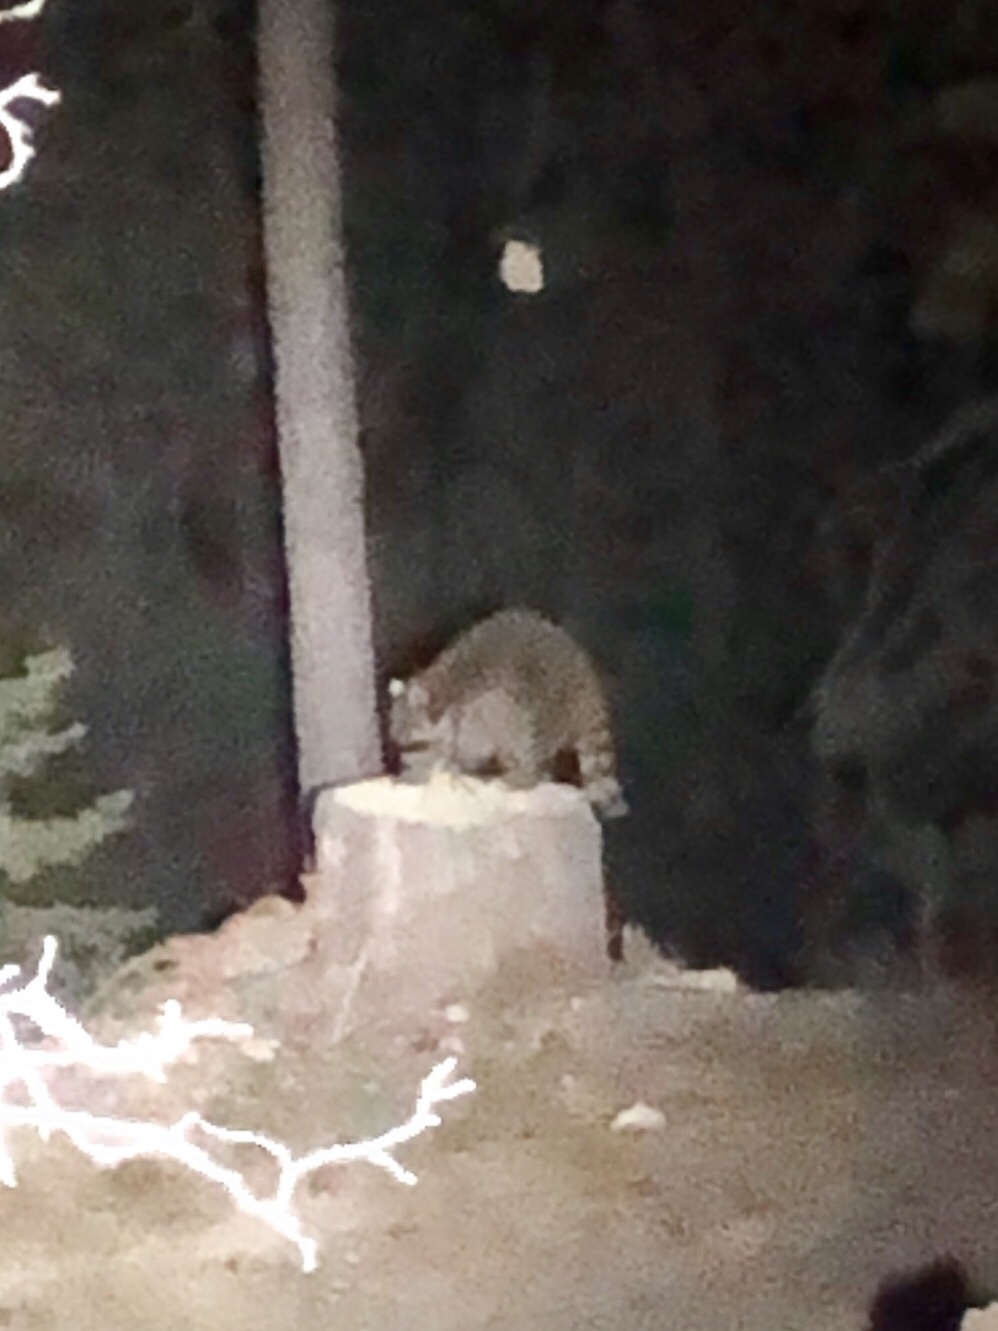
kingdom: Animalia
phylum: Chordata
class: Mammalia
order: Carnivora
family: Procyonidae
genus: Procyon
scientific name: Procyon lotor
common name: Raccoon
